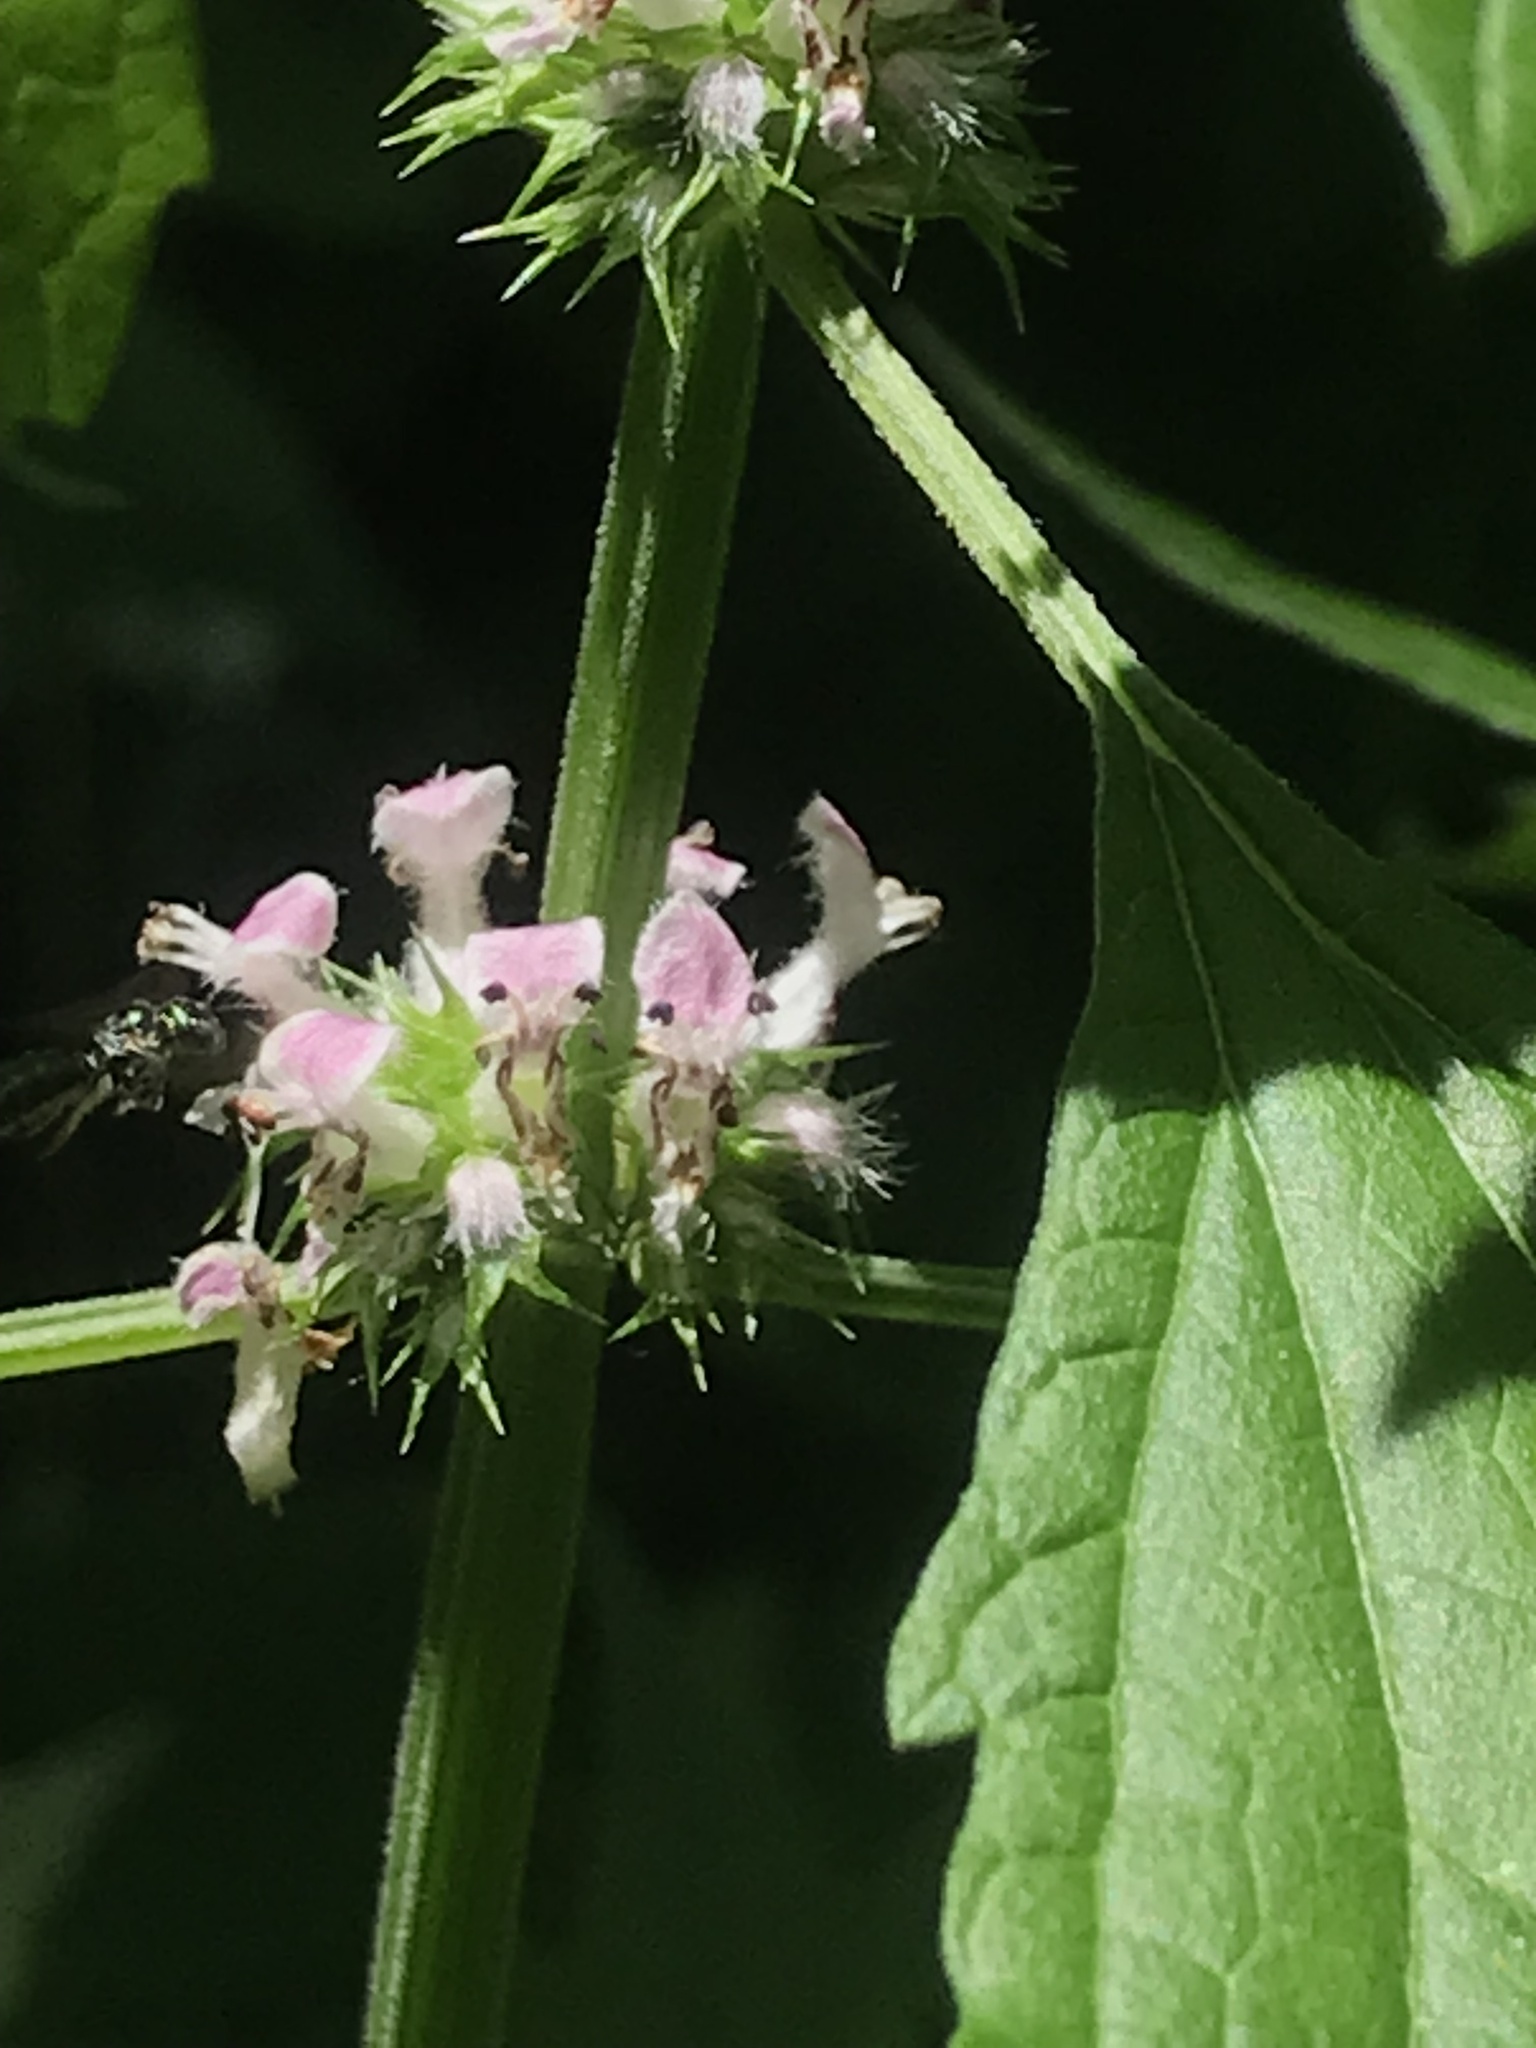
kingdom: Plantae
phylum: Tracheophyta
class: Magnoliopsida
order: Lamiales
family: Lamiaceae
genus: Leonurus
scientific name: Leonurus cardiaca
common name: Motherwort
